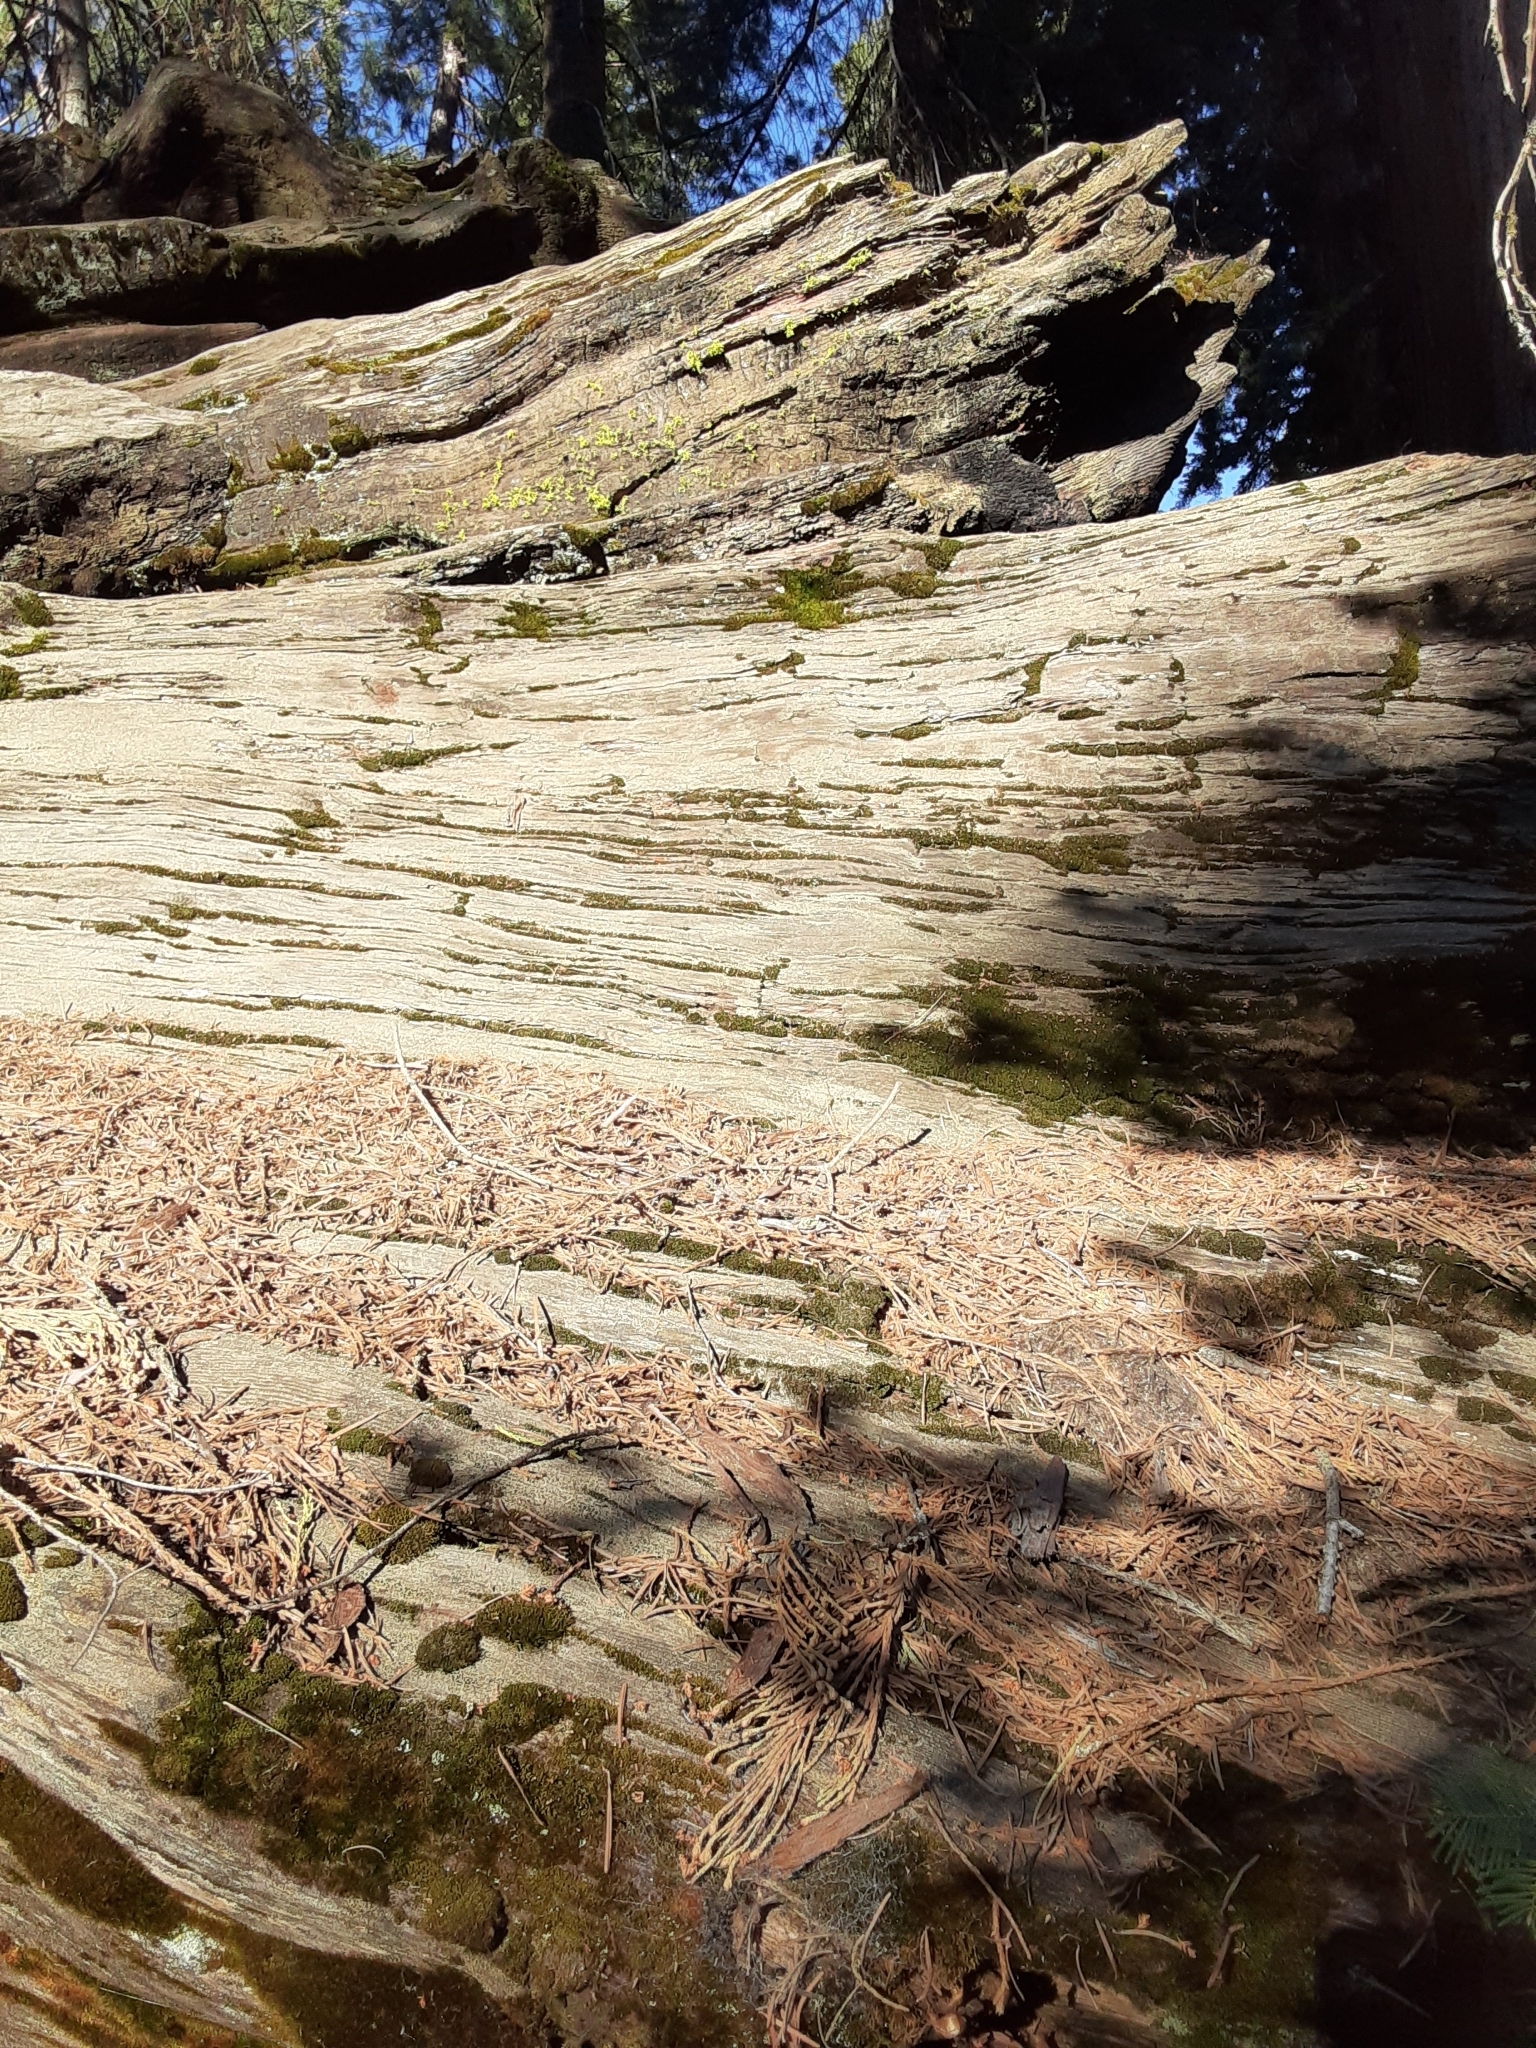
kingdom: Plantae
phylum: Tracheophyta
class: Pinopsida
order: Pinales
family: Cupressaceae
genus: Sequoiadendron
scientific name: Sequoiadendron giganteum
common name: Wellingtonia
